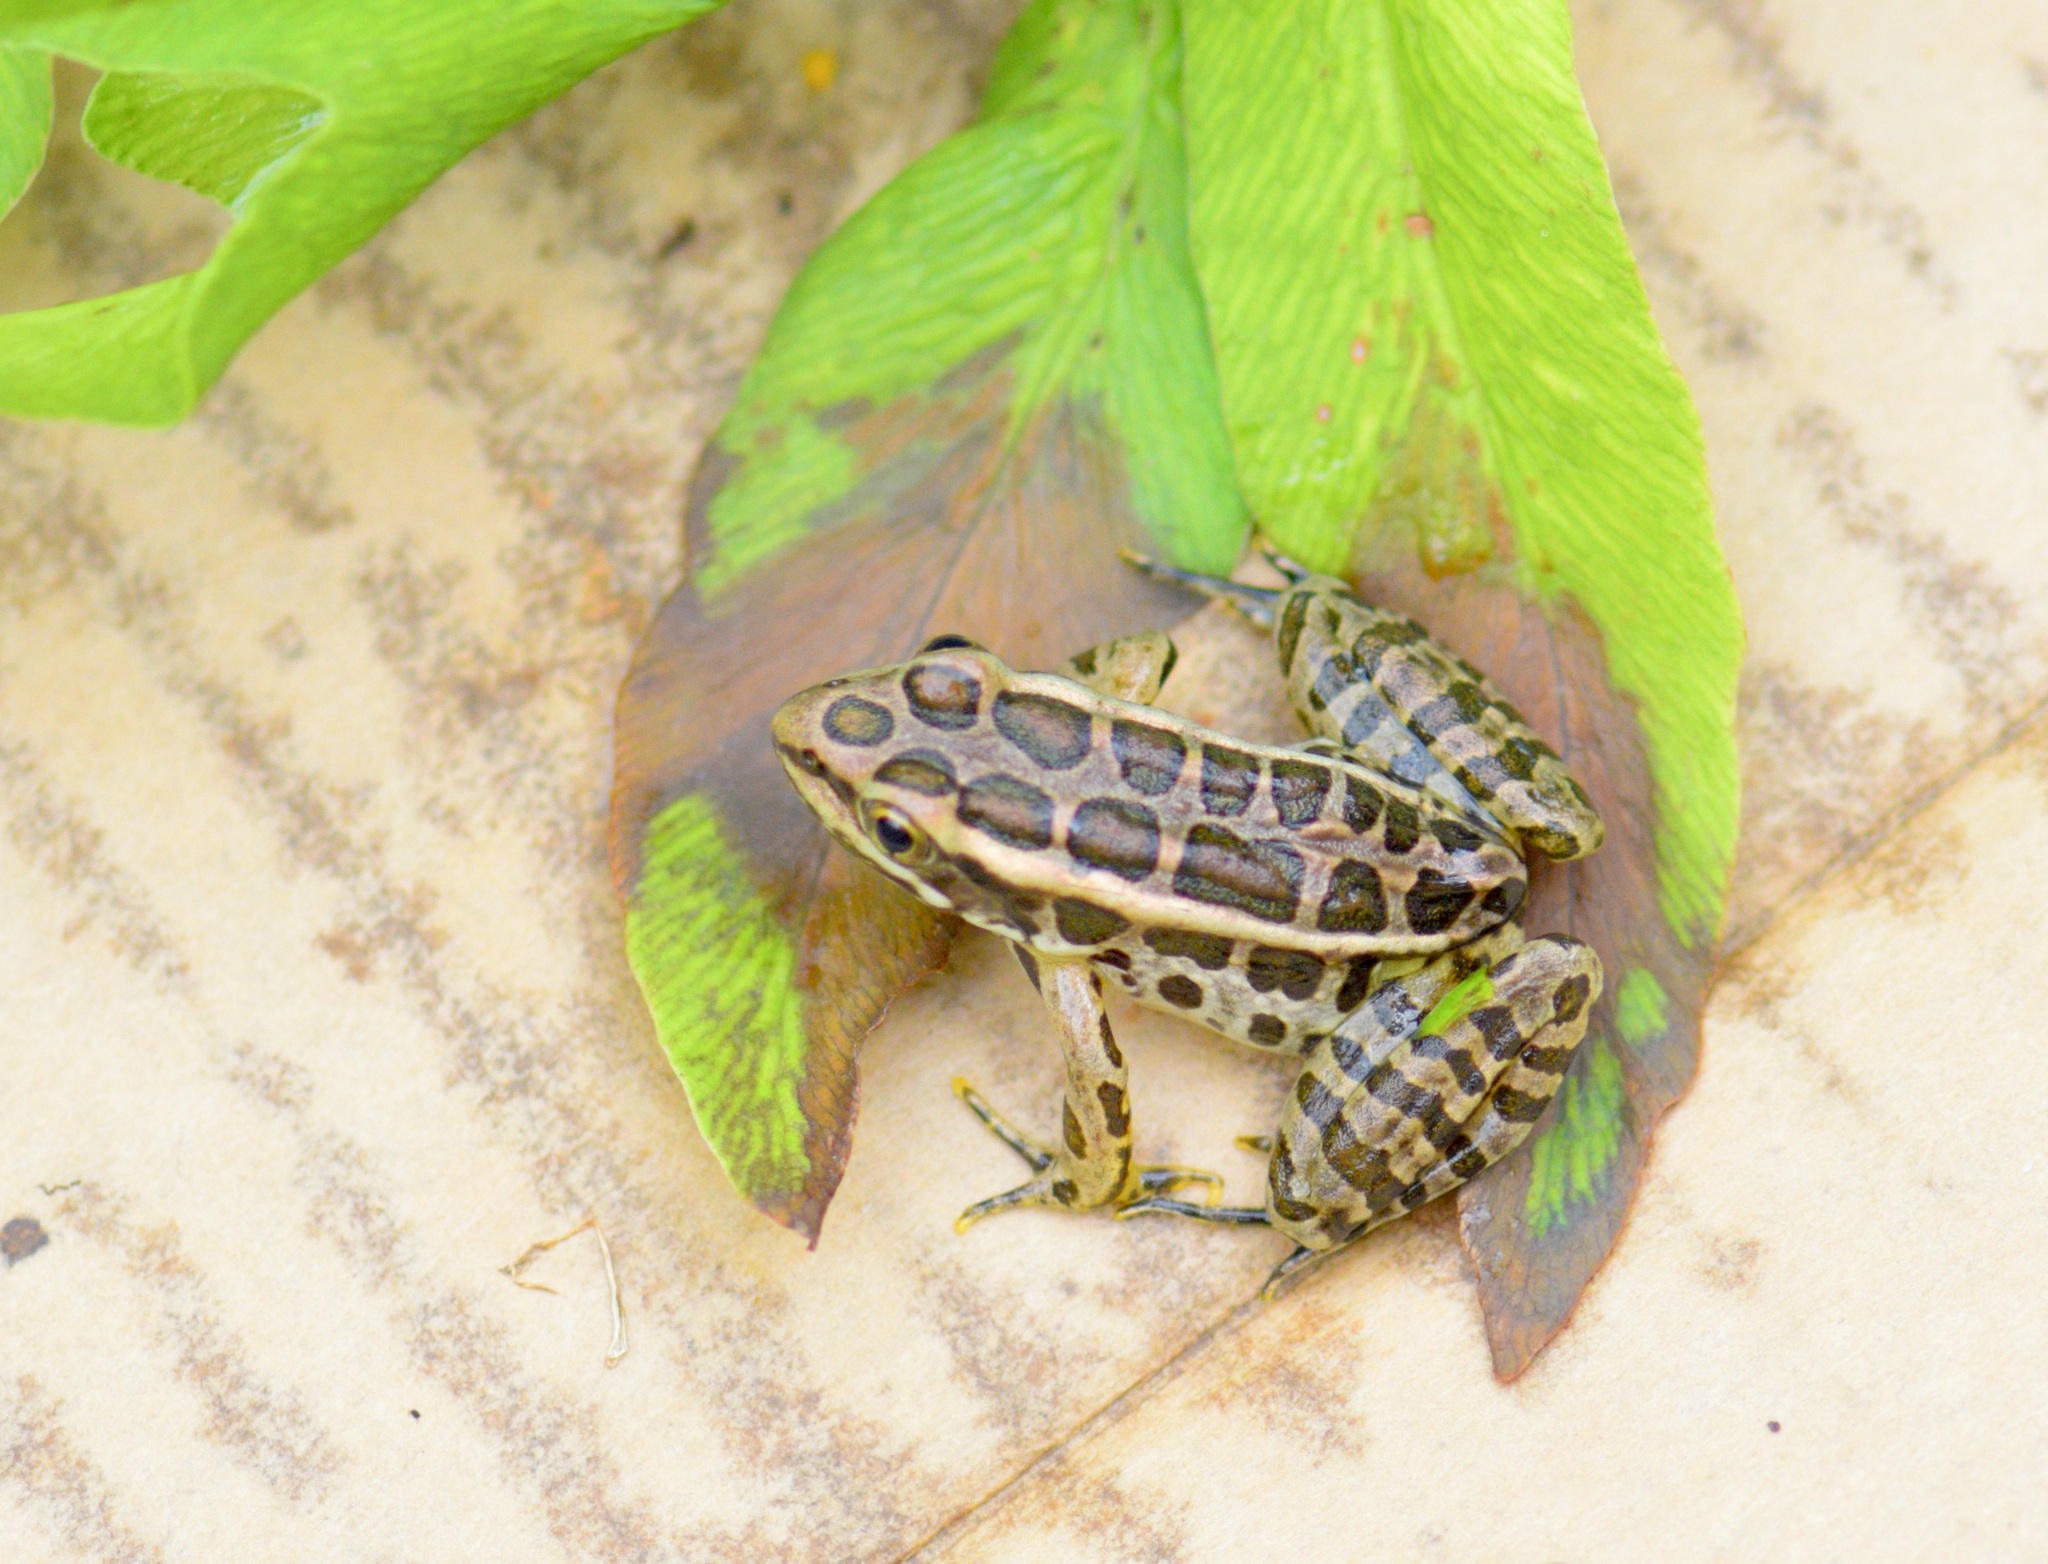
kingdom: Animalia
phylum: Chordata
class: Amphibia
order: Anura
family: Ranidae
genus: Lithobates
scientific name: Lithobates palustris
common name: Pickerel frog
